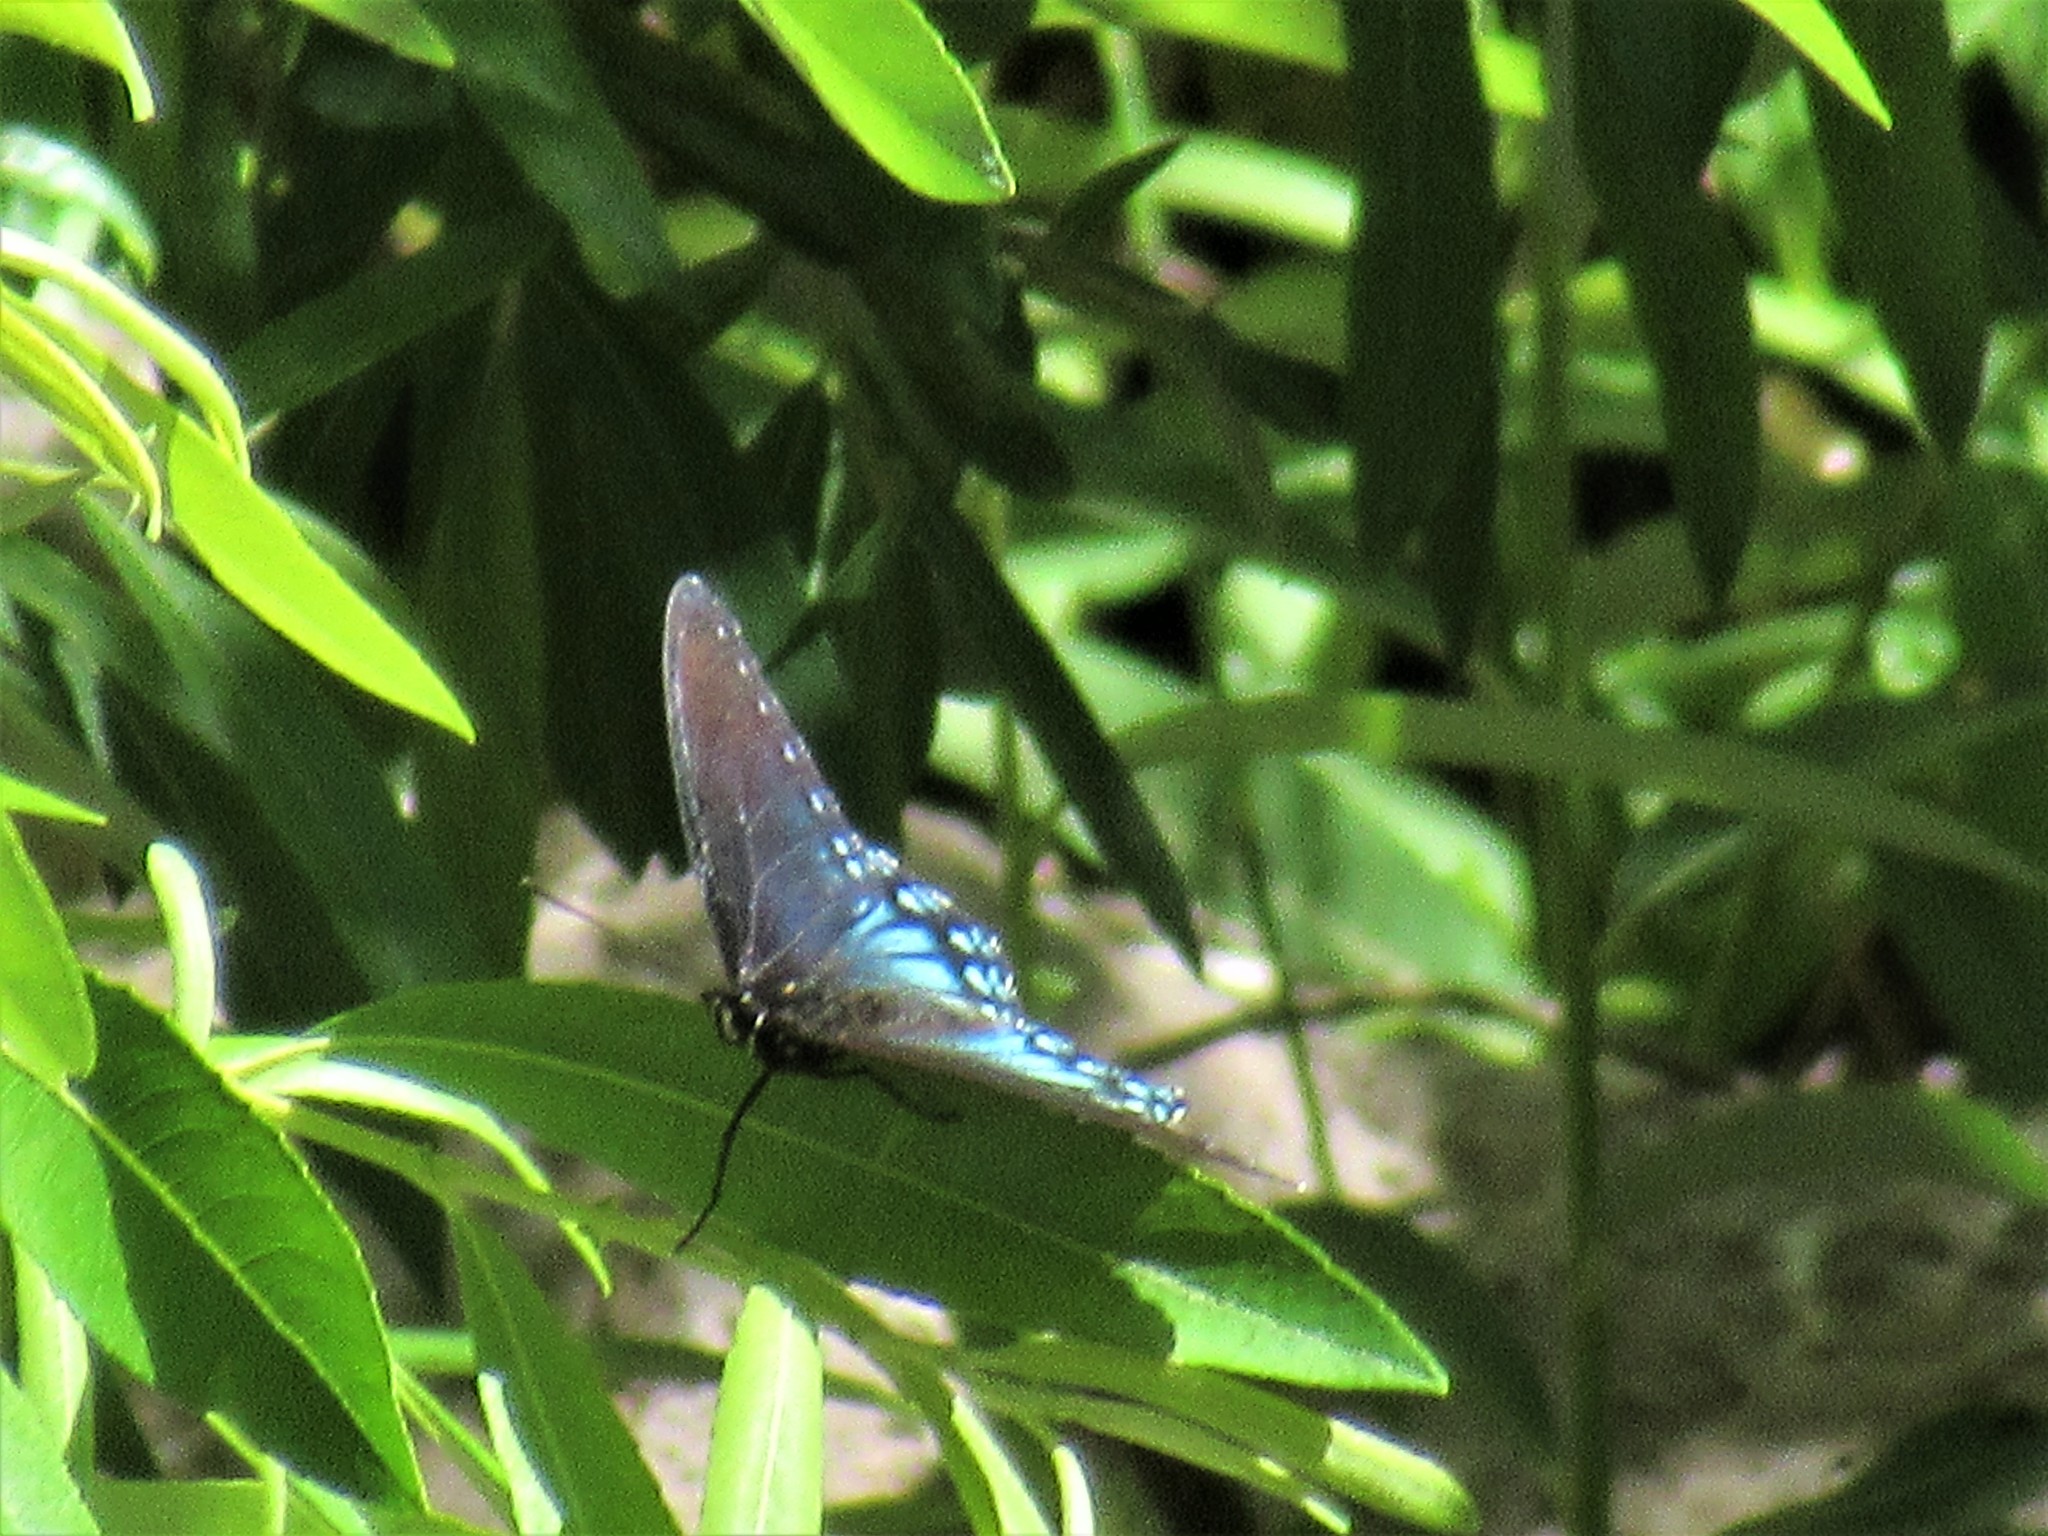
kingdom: Animalia
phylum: Arthropoda
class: Insecta
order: Lepidoptera
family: Nymphalidae
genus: Limenitis
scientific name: Limenitis arthemis
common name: Red-spotted admiral
